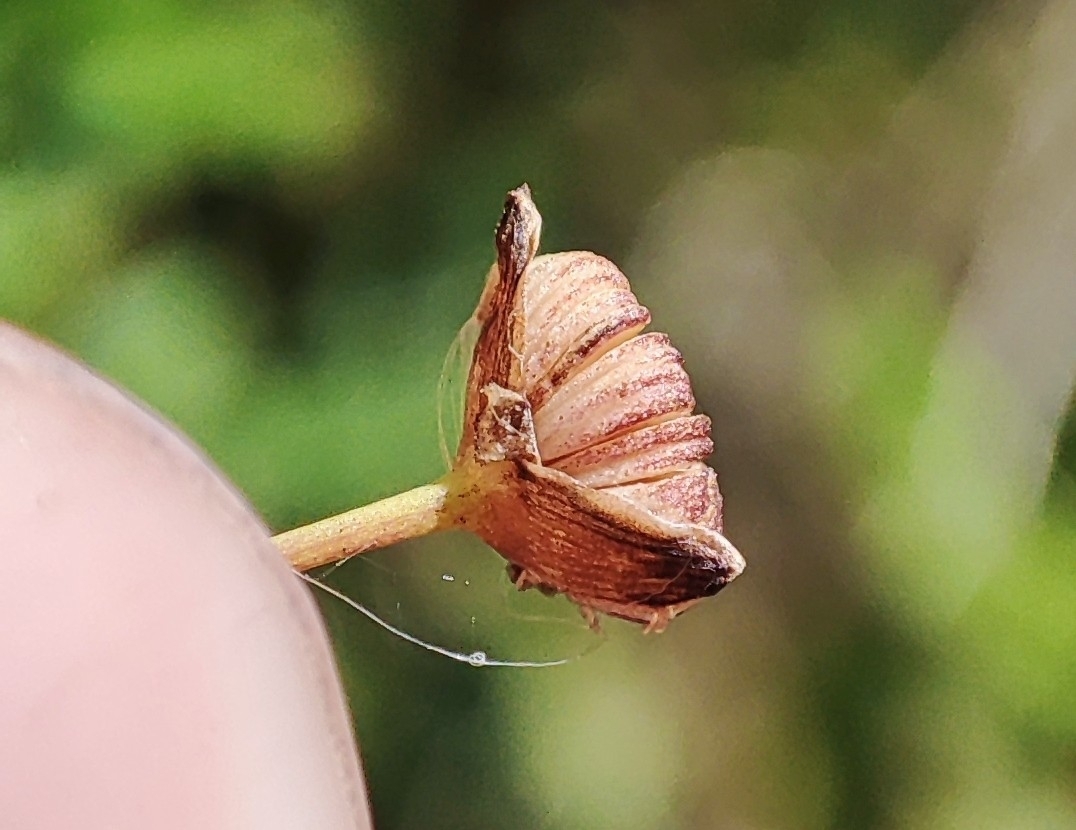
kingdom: Plantae
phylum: Tracheophyta
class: Liliopsida
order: Alismatales
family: Alismataceae
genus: Alisma
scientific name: Alisma plantago-aquatica
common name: Water-plantain
